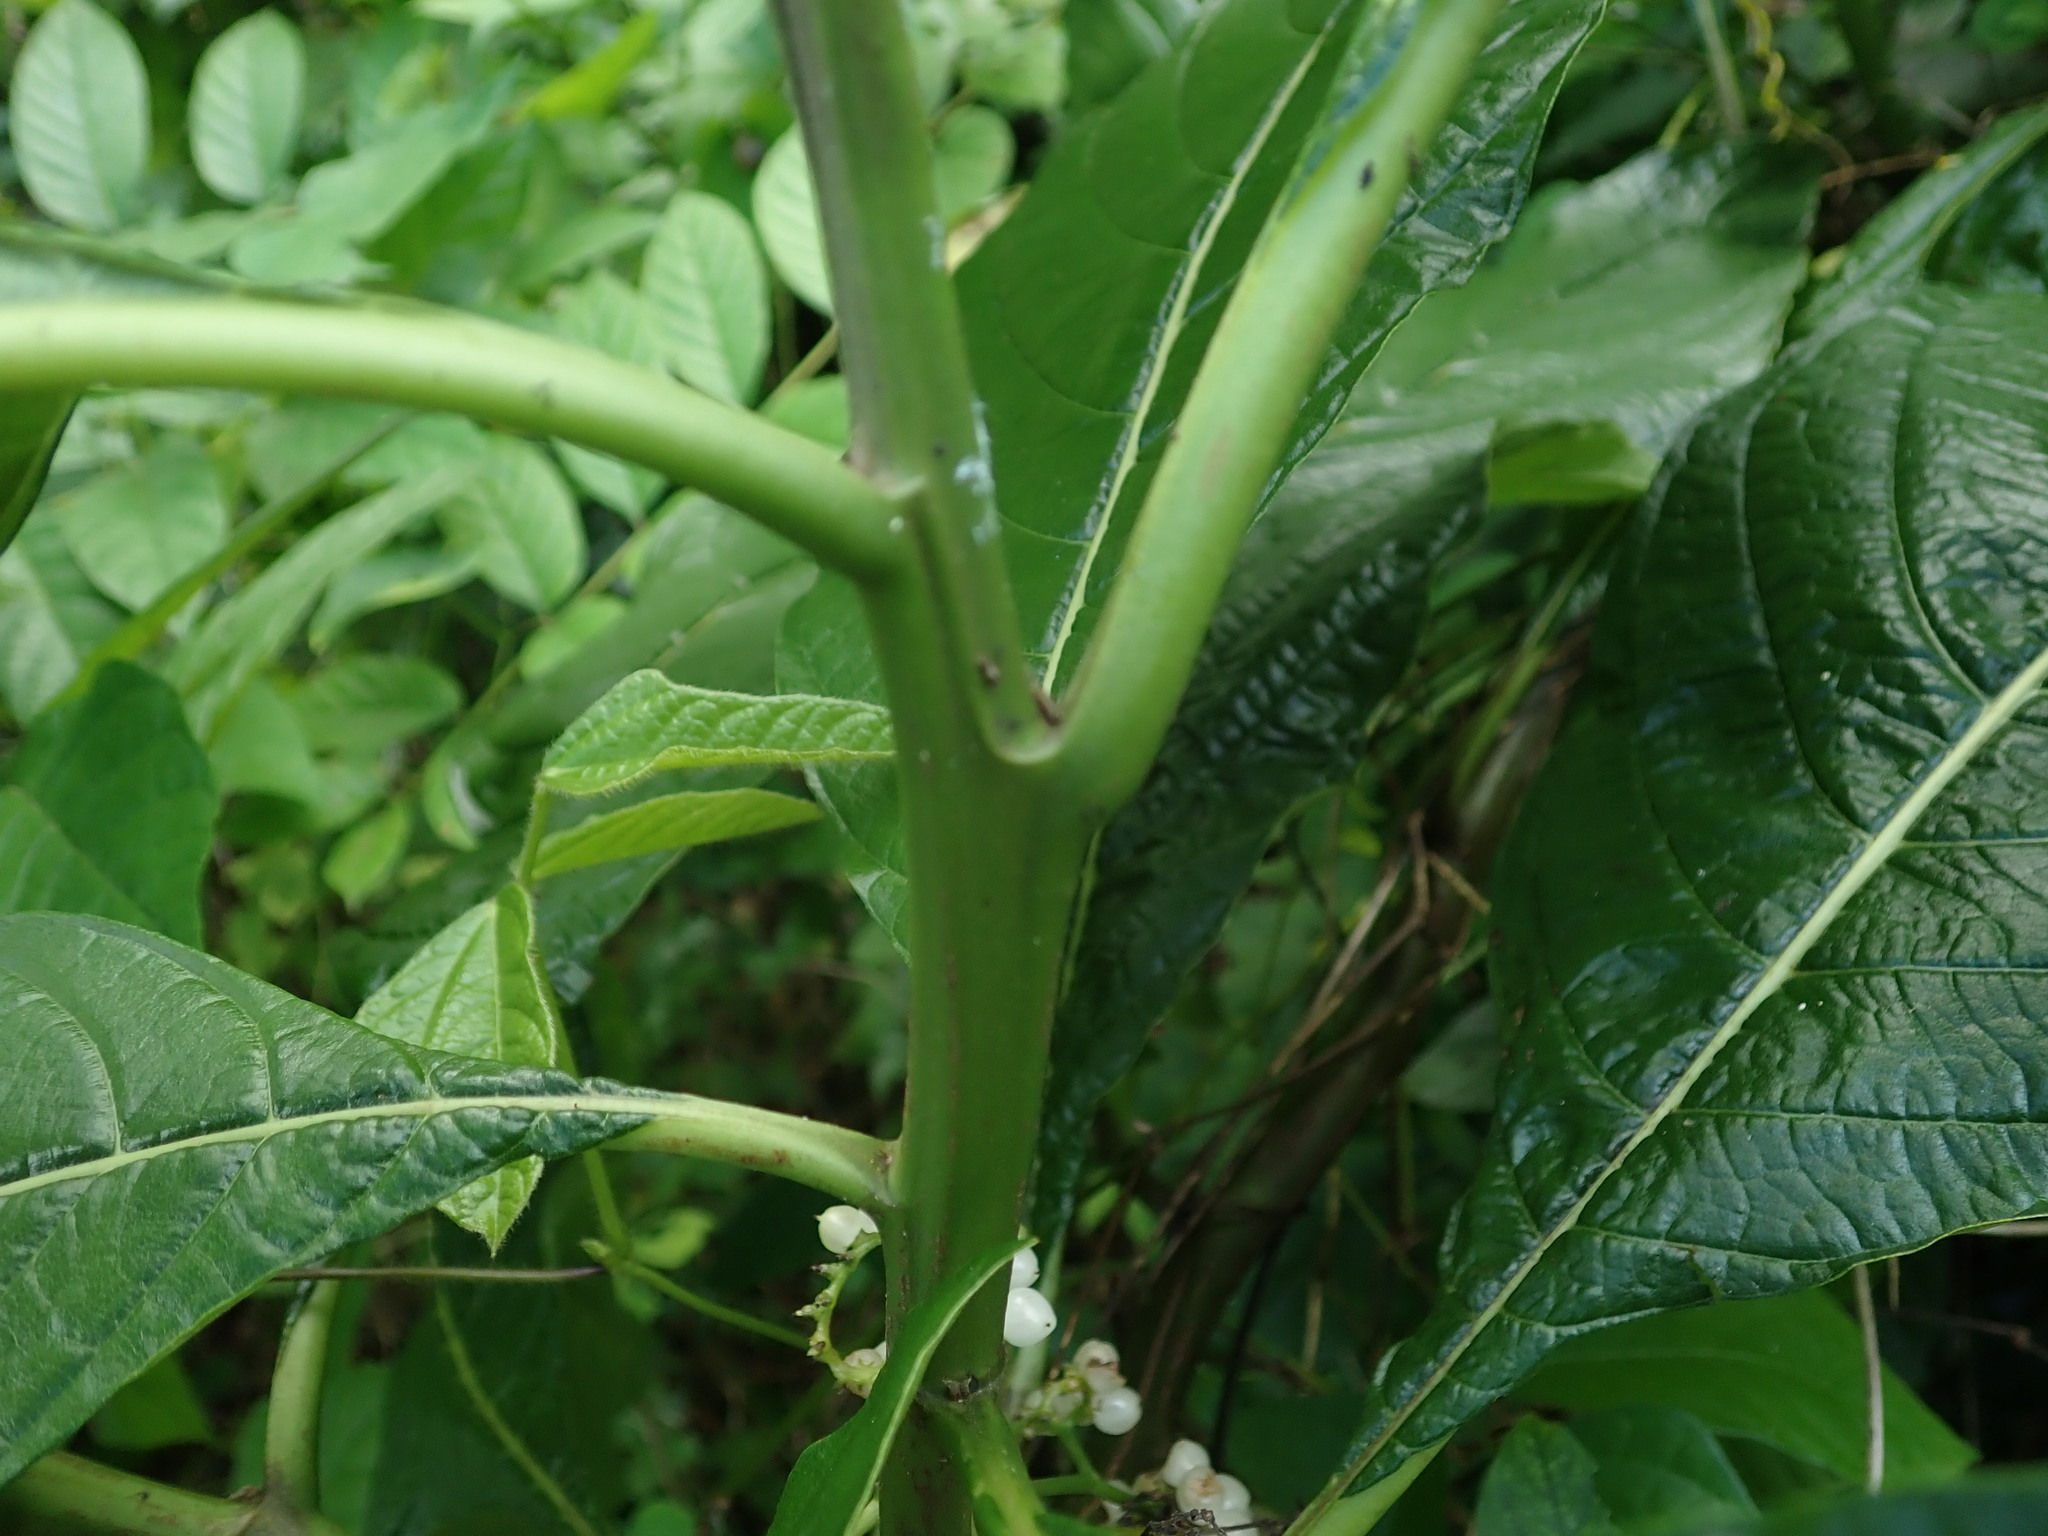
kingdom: Plantae
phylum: Tracheophyta
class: Magnoliopsida
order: Boraginales
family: Heliotropiaceae
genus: Heliotropium
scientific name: Heliotropium filiflorum
